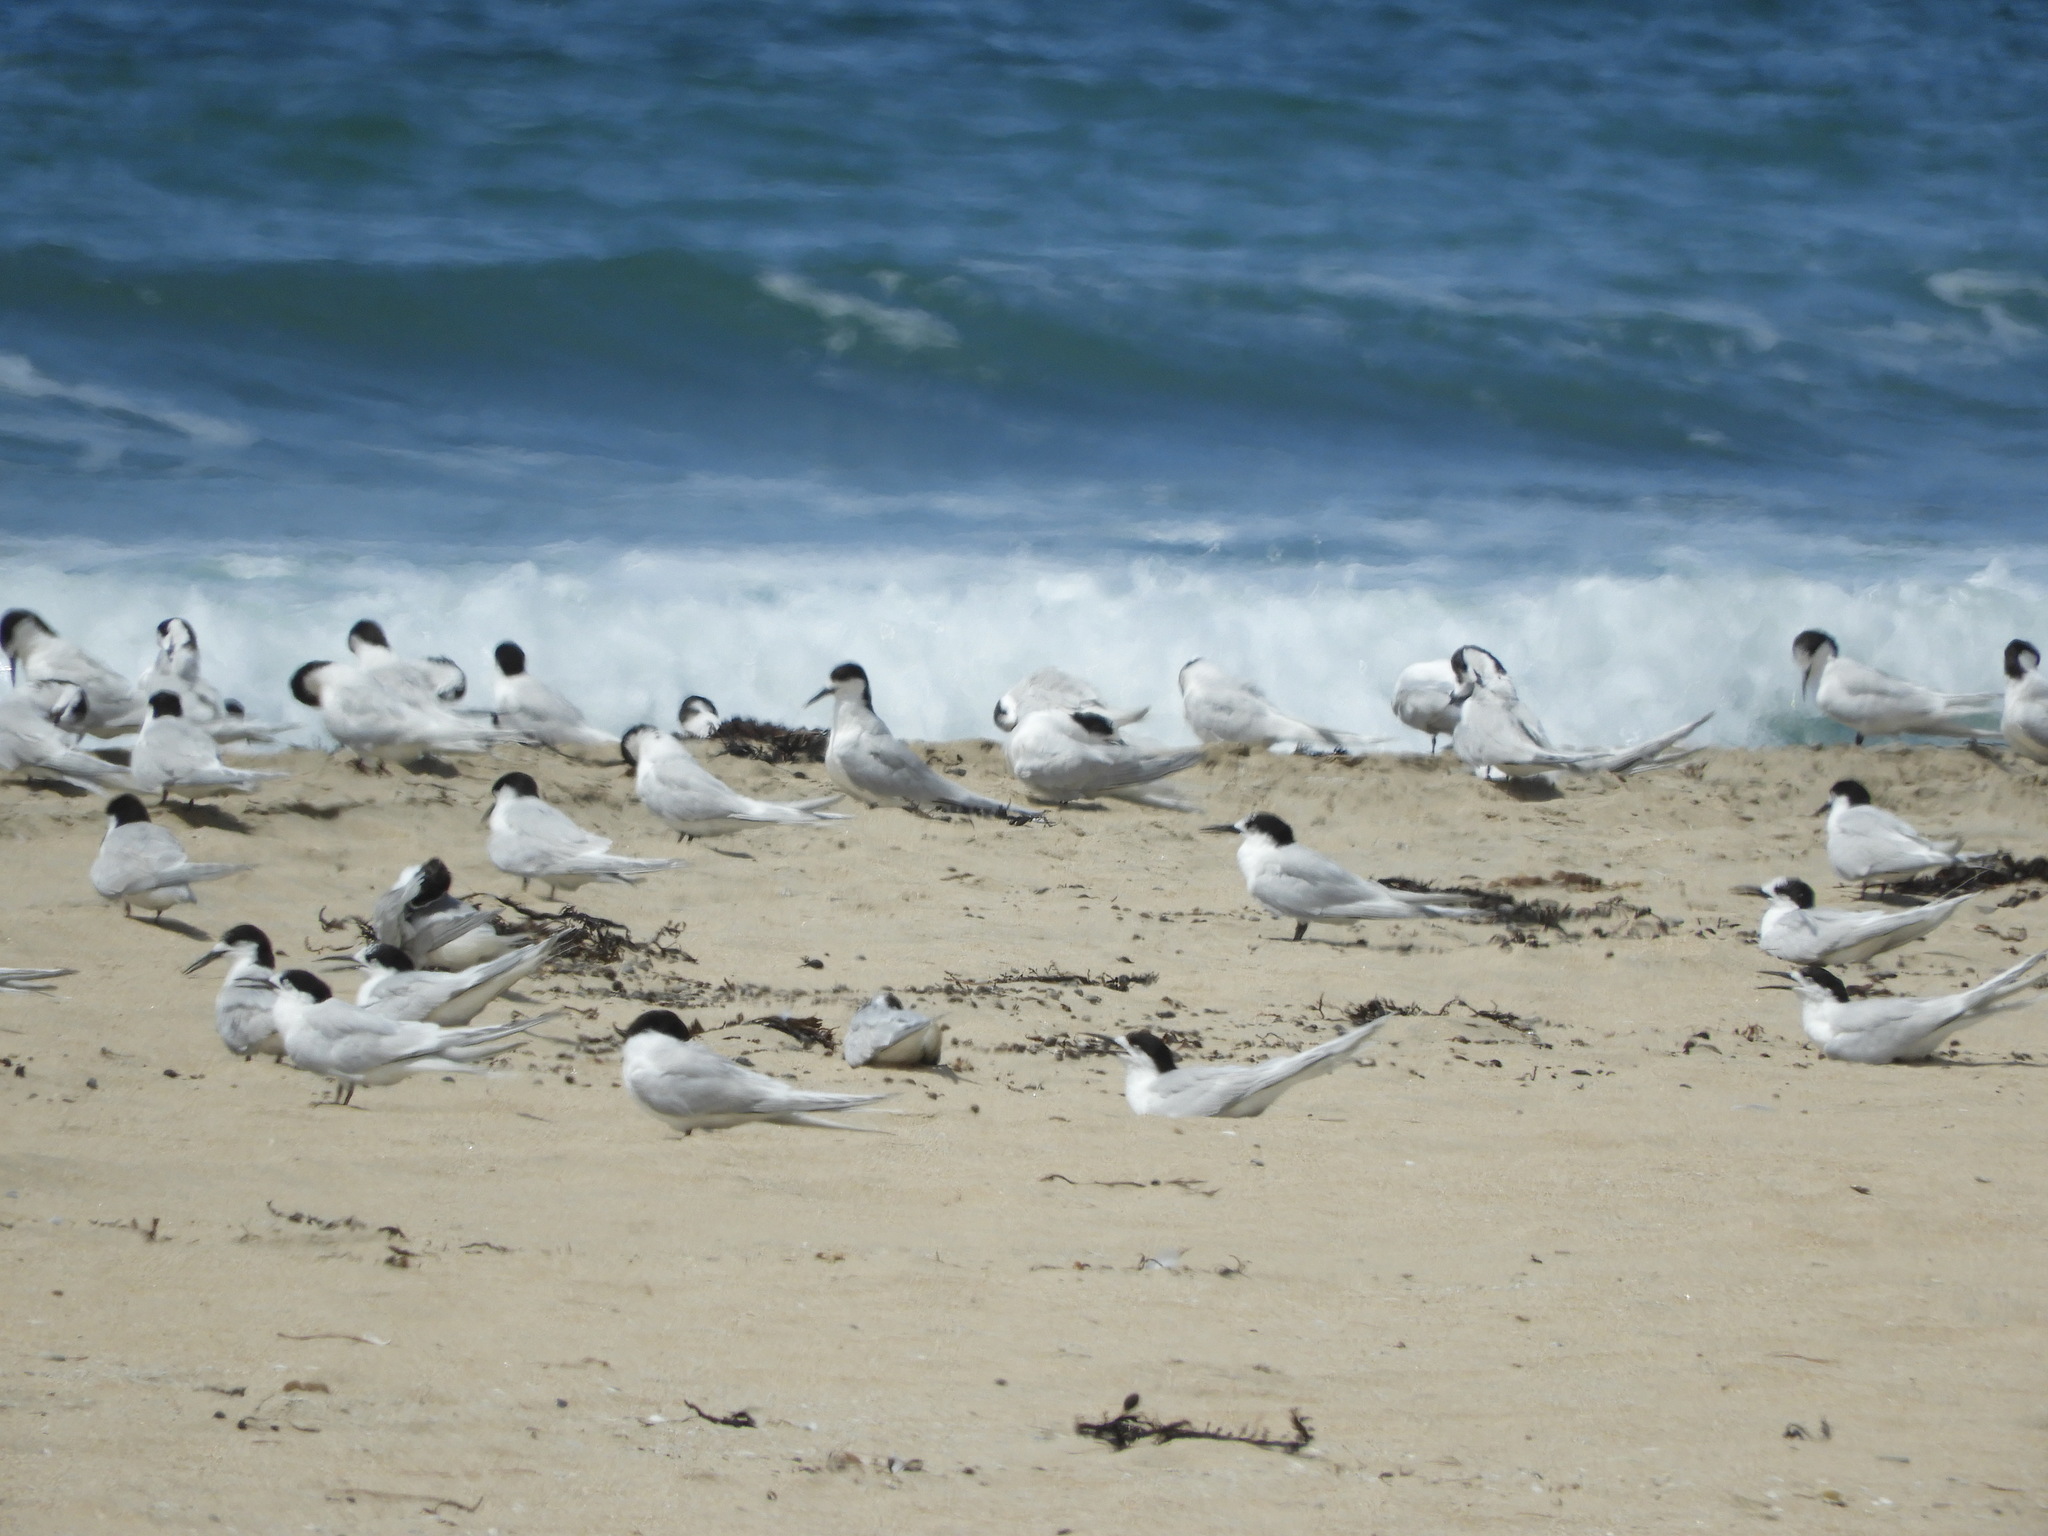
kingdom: Animalia
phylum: Chordata
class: Aves
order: Charadriiformes
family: Laridae
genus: Sterna
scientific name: Sterna striata
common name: White-fronted tern
